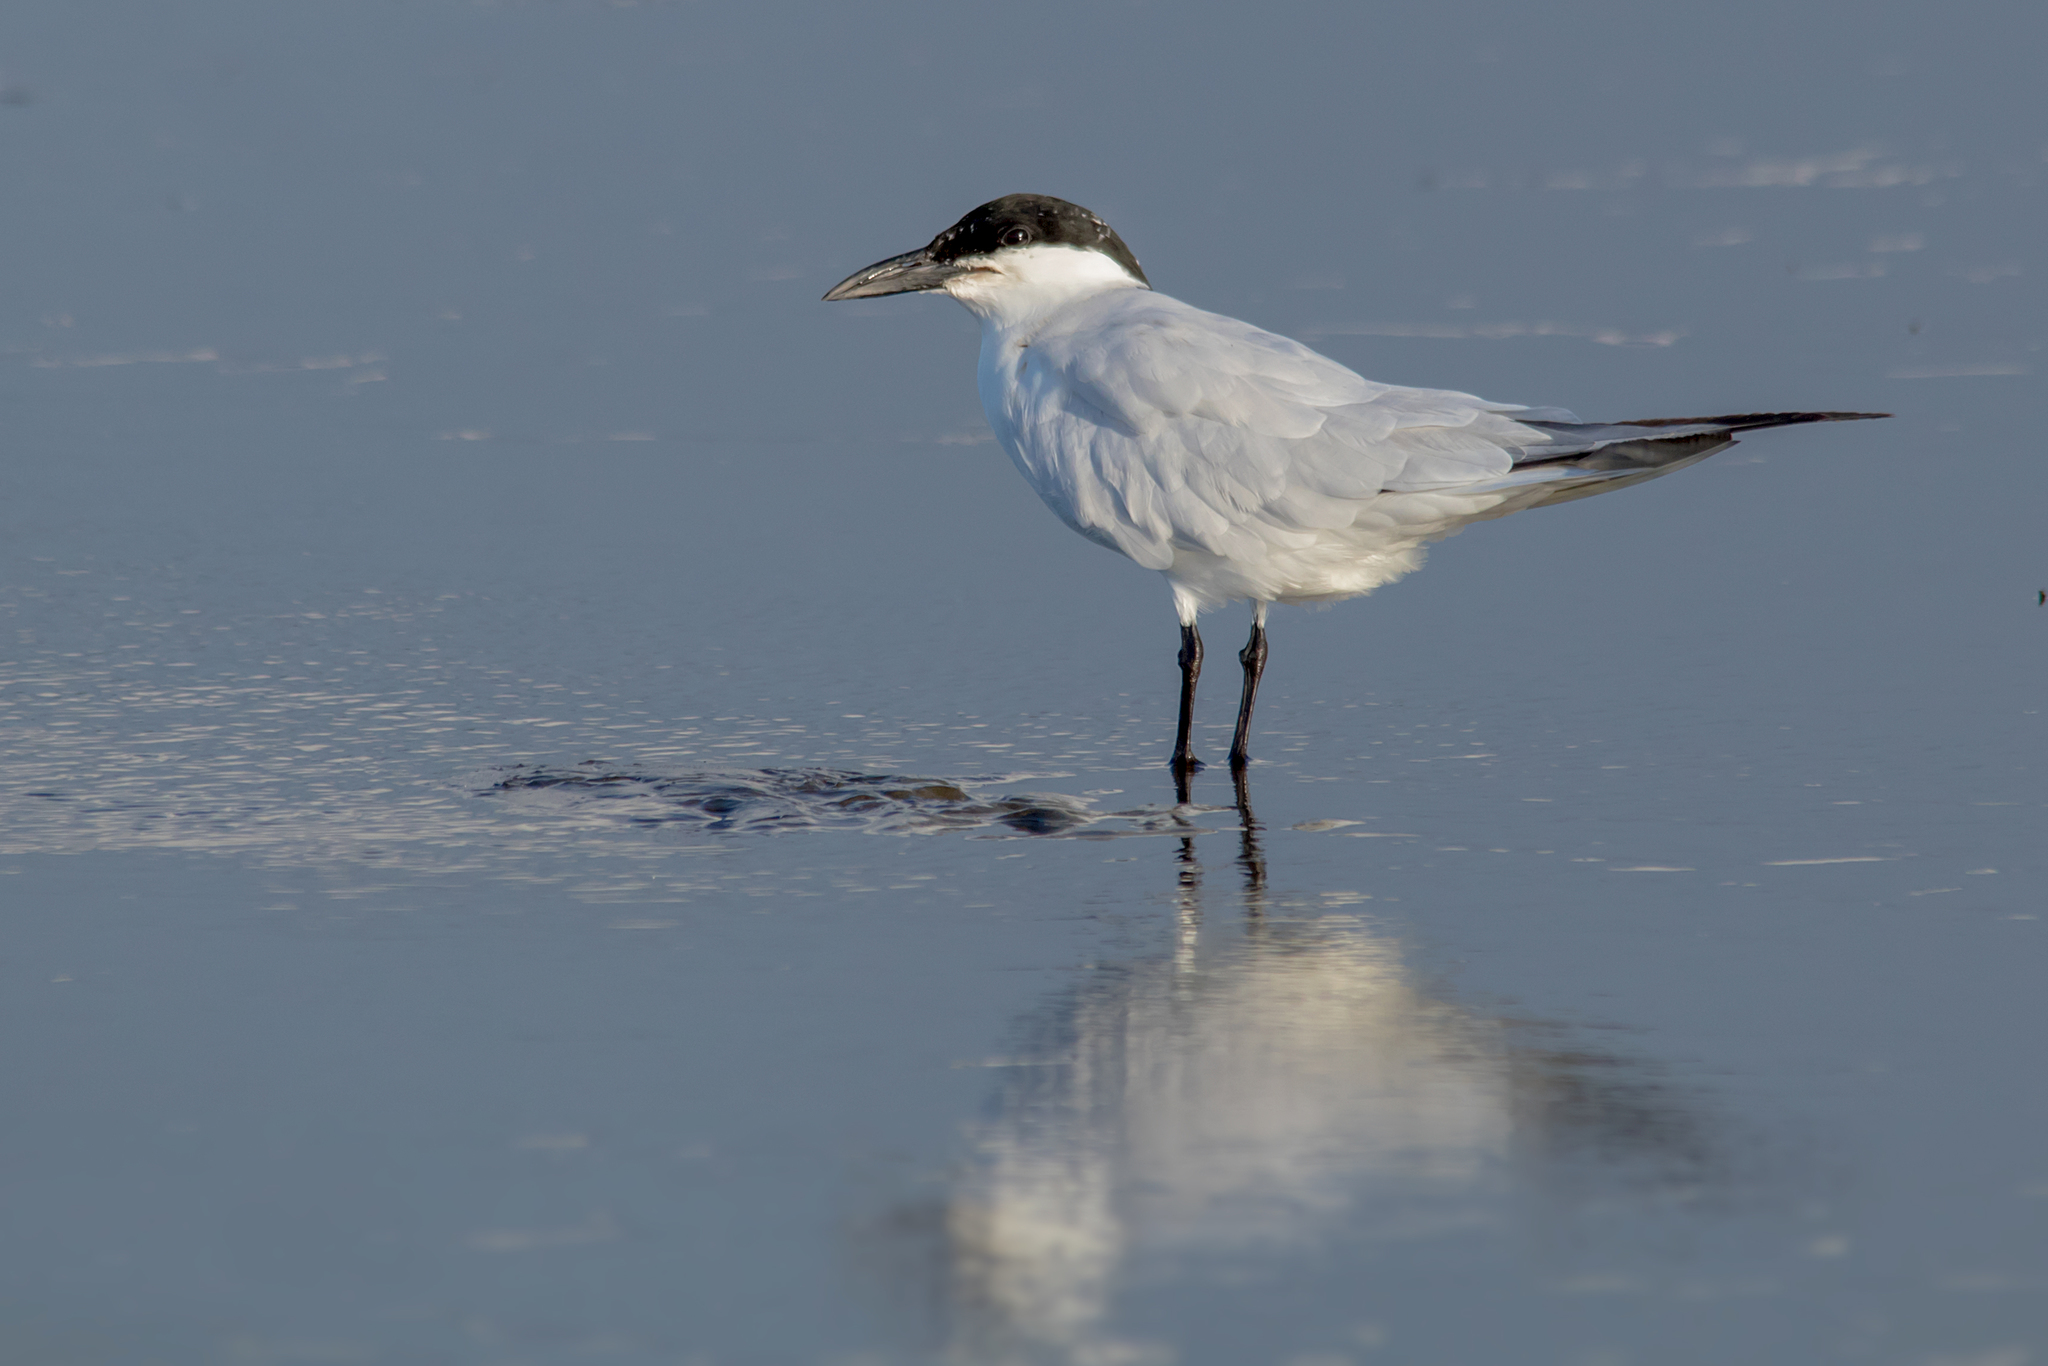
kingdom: Animalia
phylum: Chordata
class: Aves
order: Charadriiformes
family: Laridae
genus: Gelochelidon
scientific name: Gelochelidon macrotarsa
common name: Australian tern
